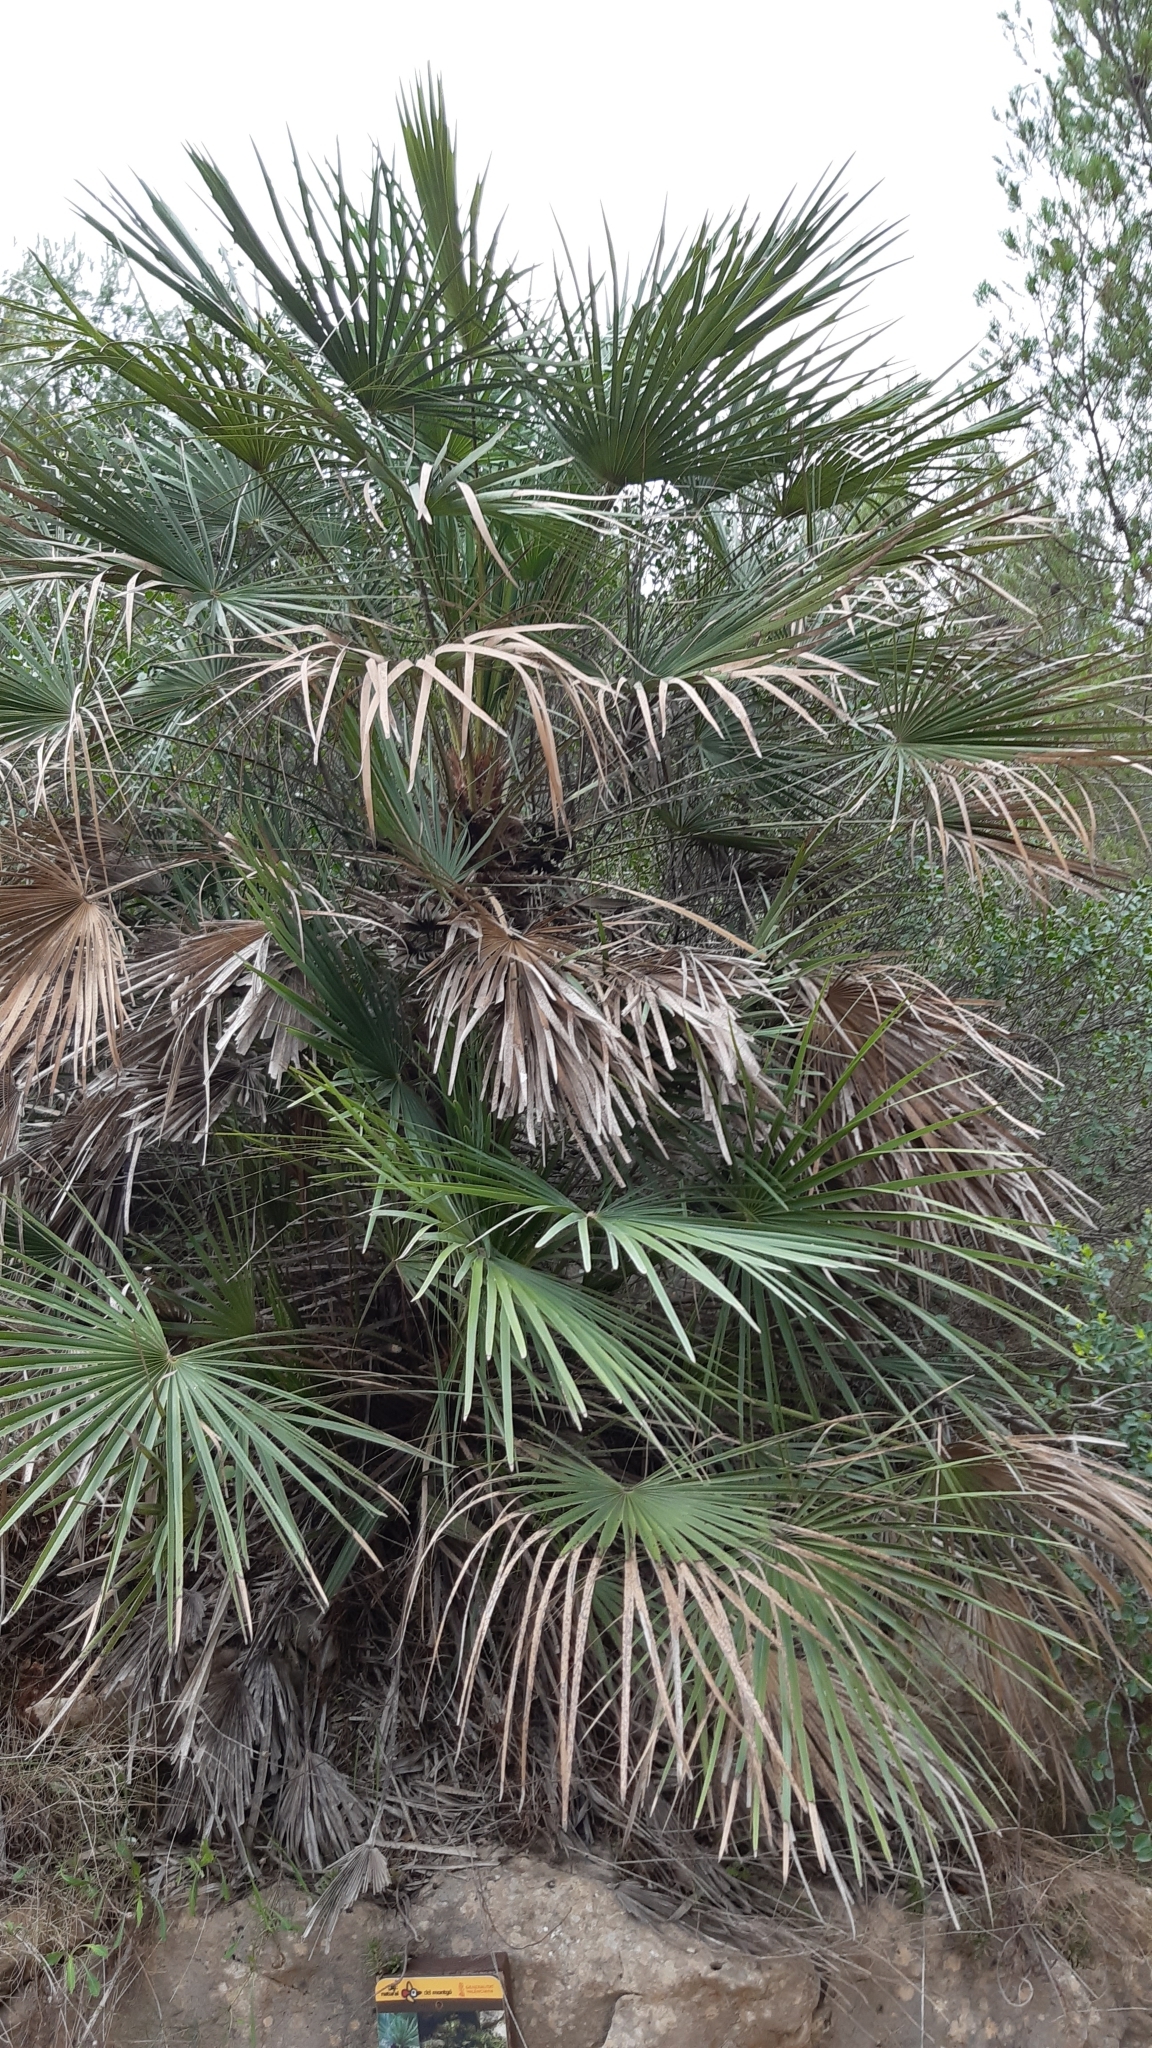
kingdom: Plantae
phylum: Tracheophyta
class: Liliopsida
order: Arecales
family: Arecaceae
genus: Chamaerops
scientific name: Chamaerops humilis
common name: Dwarf fan palm
